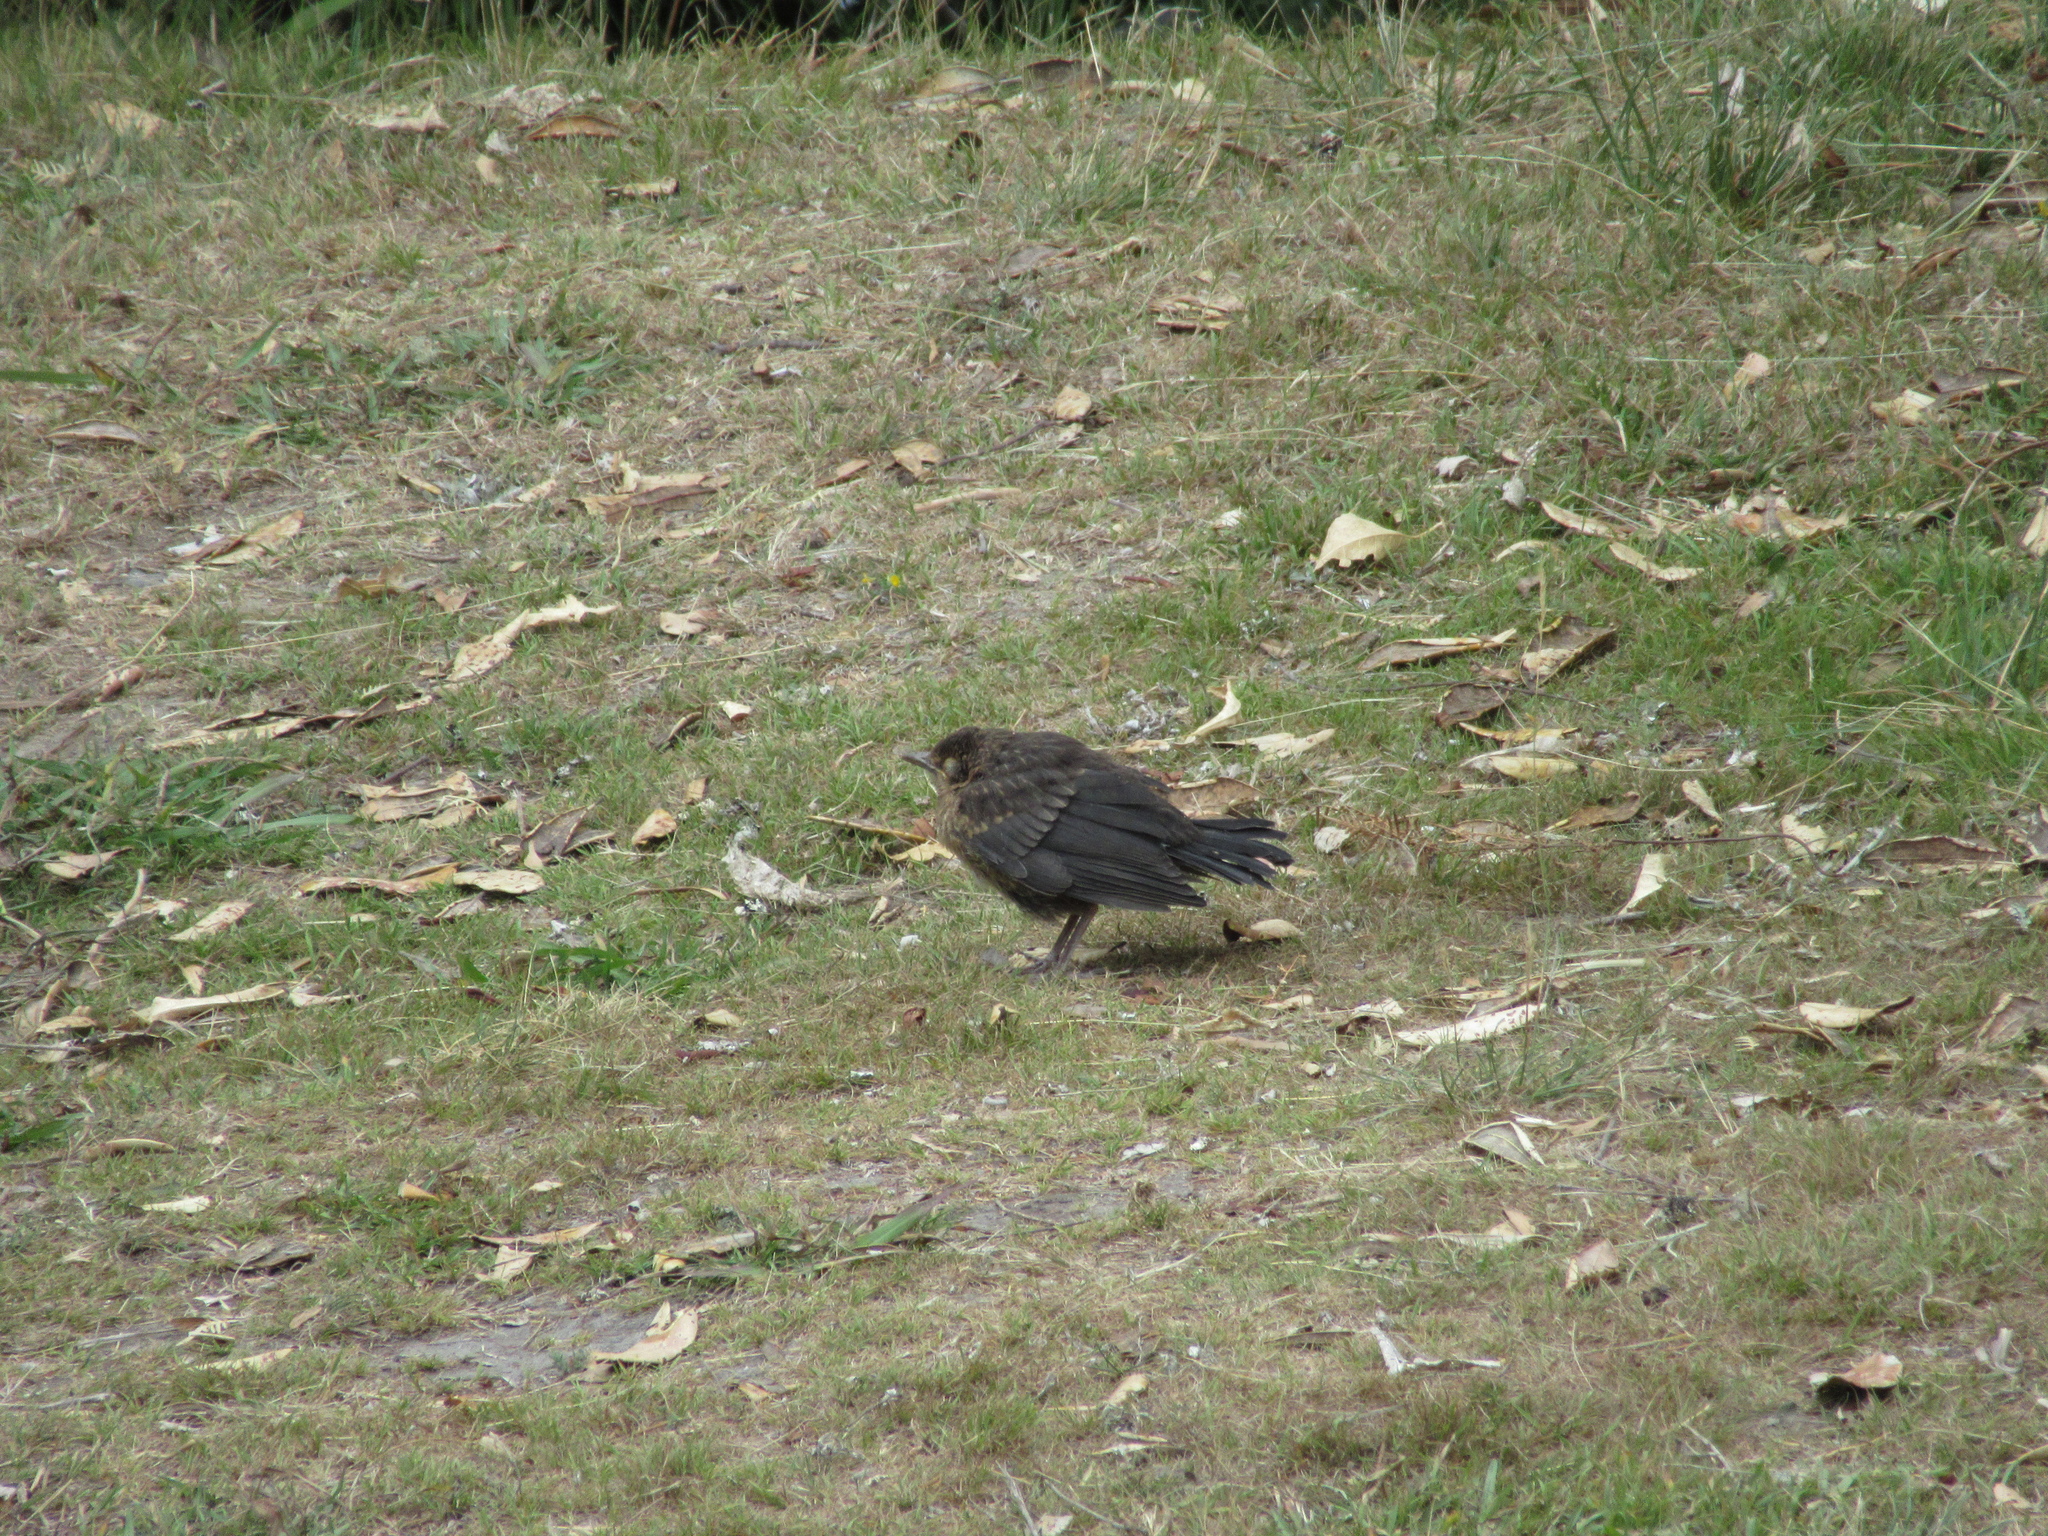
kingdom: Animalia
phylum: Chordata
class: Aves
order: Passeriformes
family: Turdidae
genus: Turdus
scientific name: Turdus merula
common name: Common blackbird
